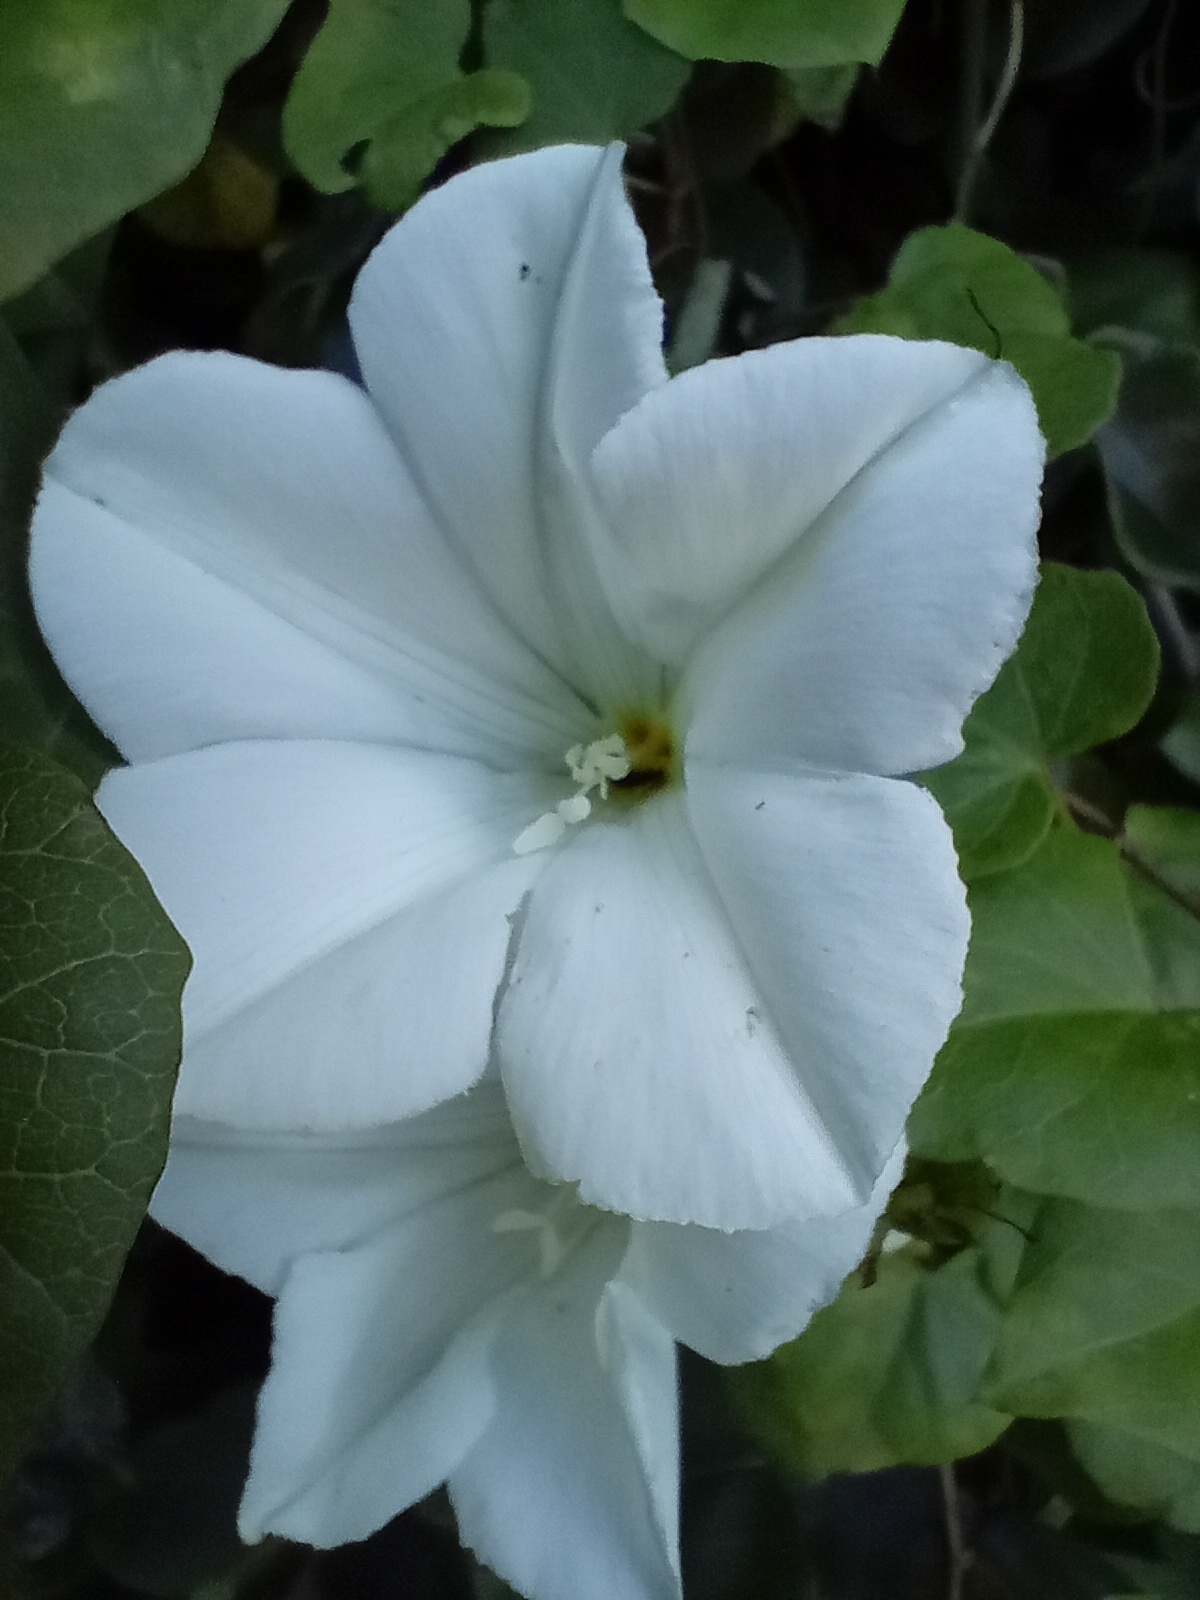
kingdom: Plantae
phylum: Tracheophyta
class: Magnoliopsida
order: Solanales
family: Convolvulaceae
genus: Calystegia
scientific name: Calystegia tuguriorum
